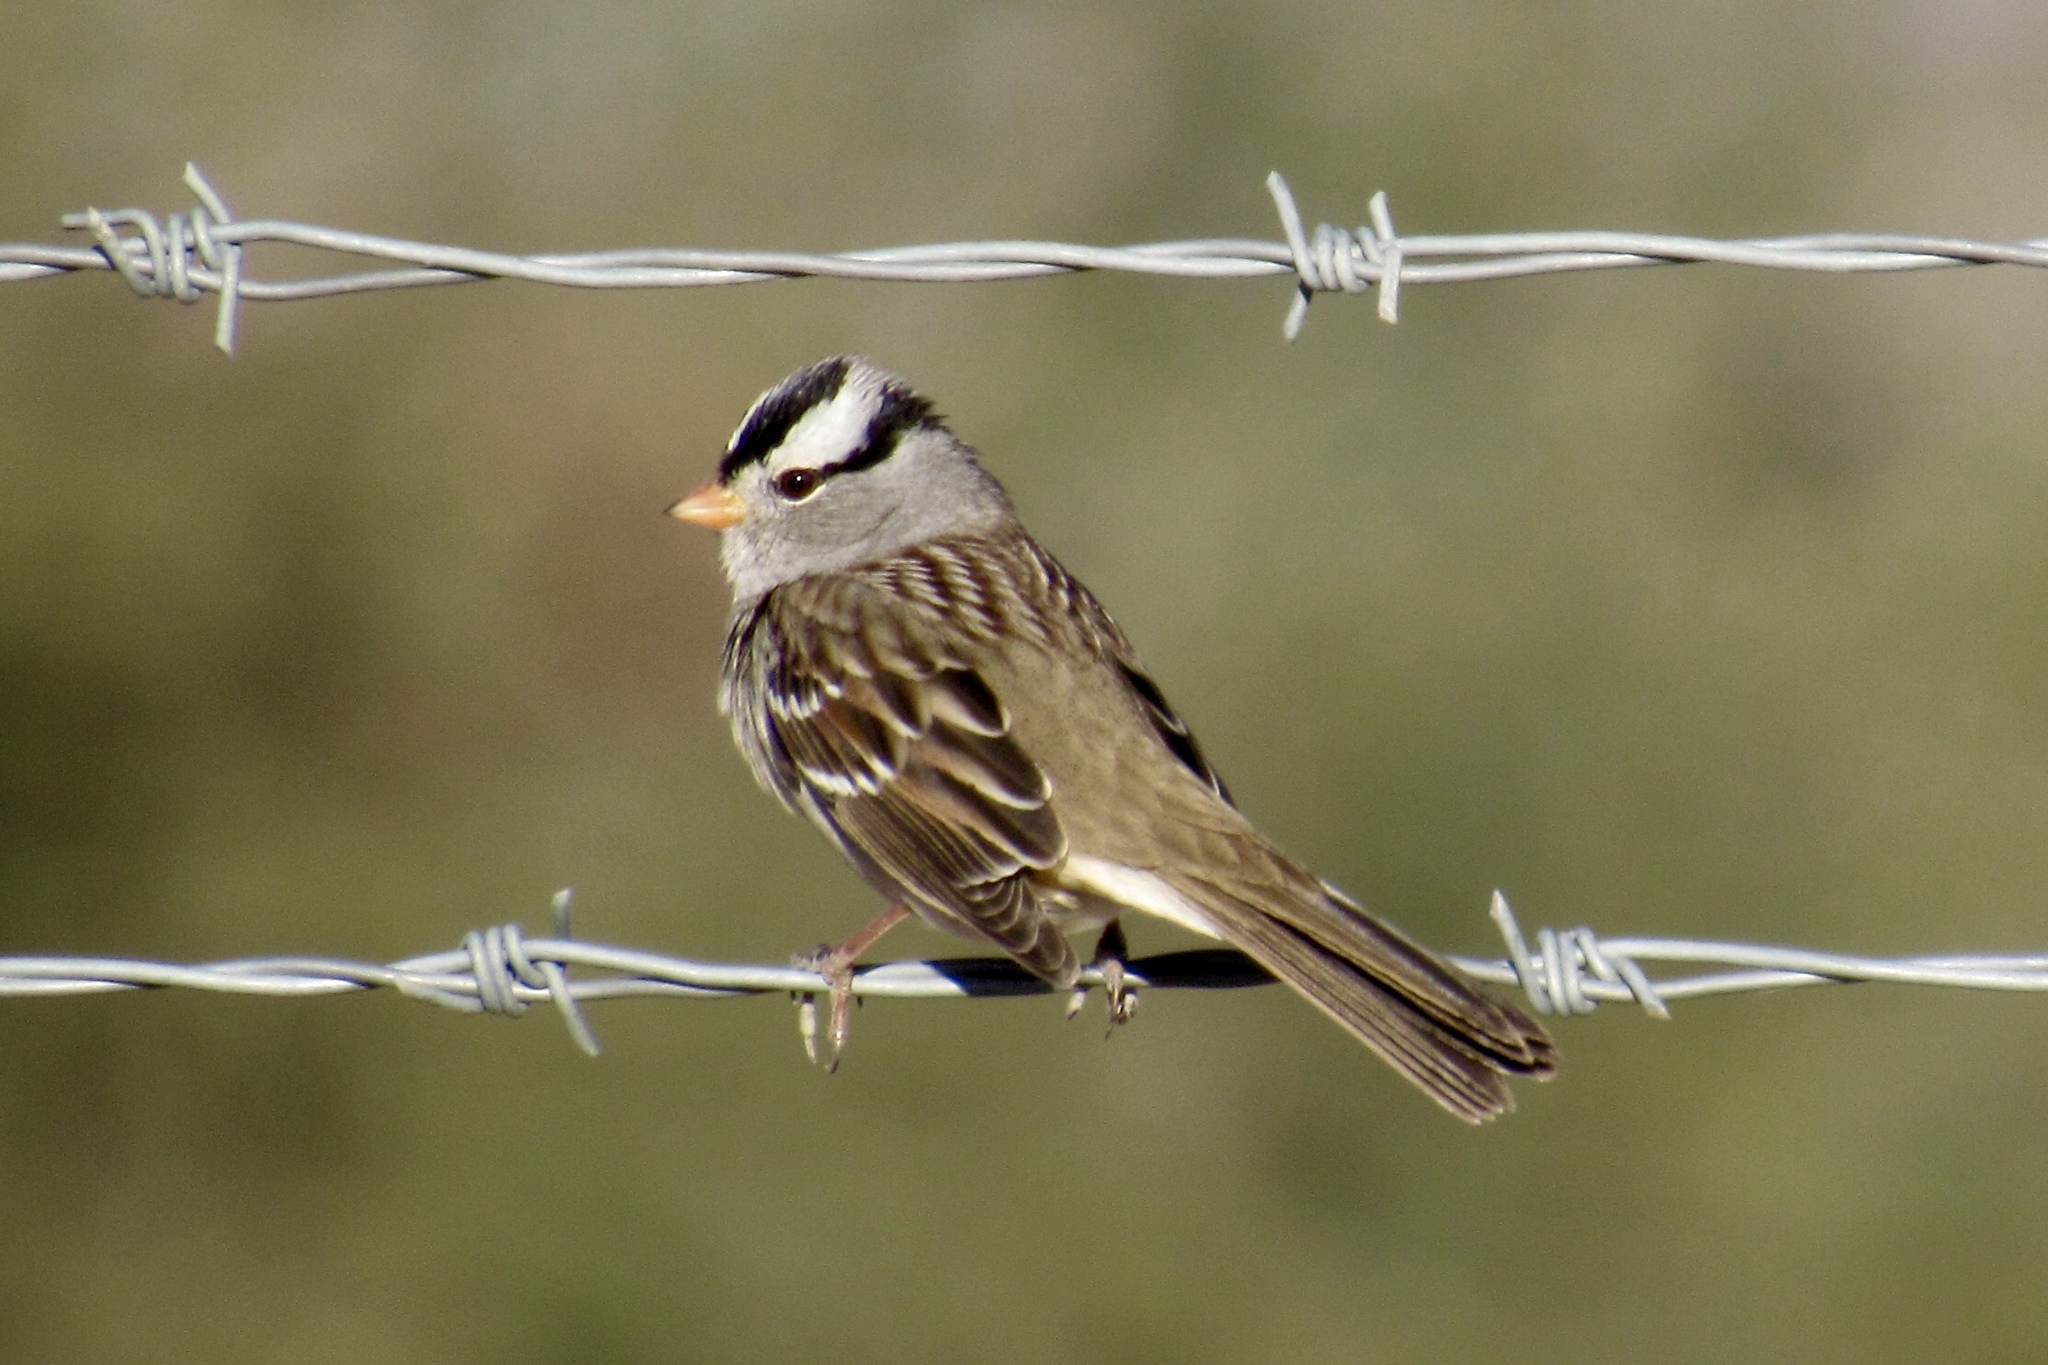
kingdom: Animalia
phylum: Chordata
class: Aves
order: Passeriformes
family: Passerellidae
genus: Zonotrichia
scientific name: Zonotrichia leucophrys
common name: White-crowned sparrow
